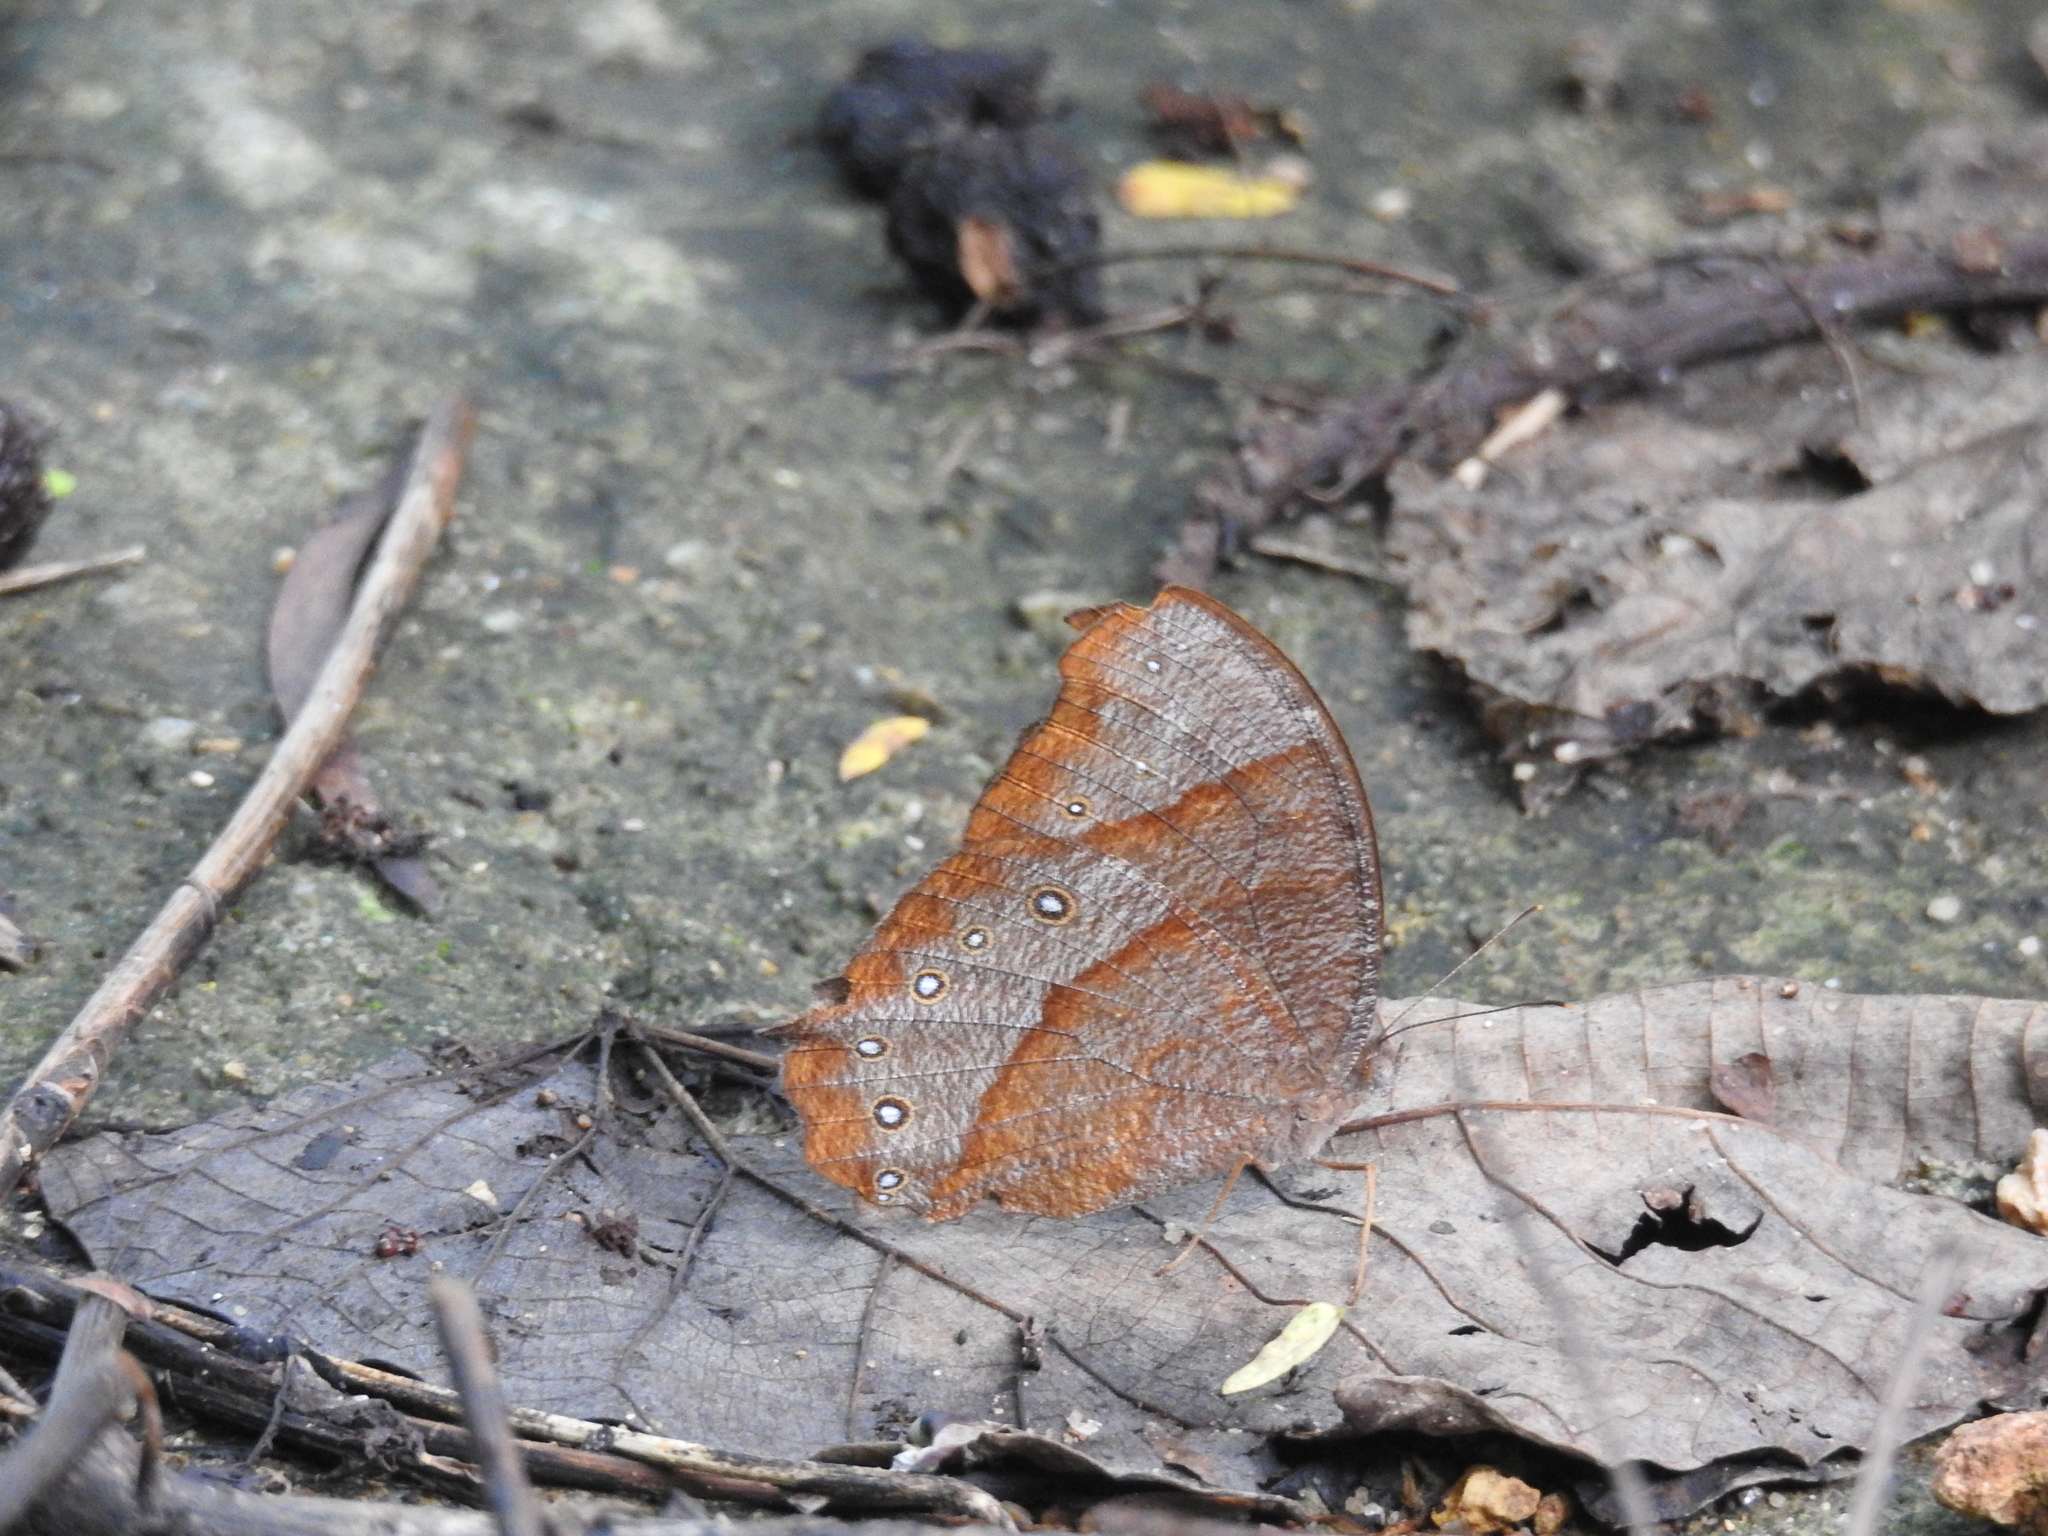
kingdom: Animalia
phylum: Arthropoda
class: Insecta
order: Lepidoptera
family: Nymphalidae
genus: Melanitis
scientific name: Melanitis phedima
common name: Dark evening brown
